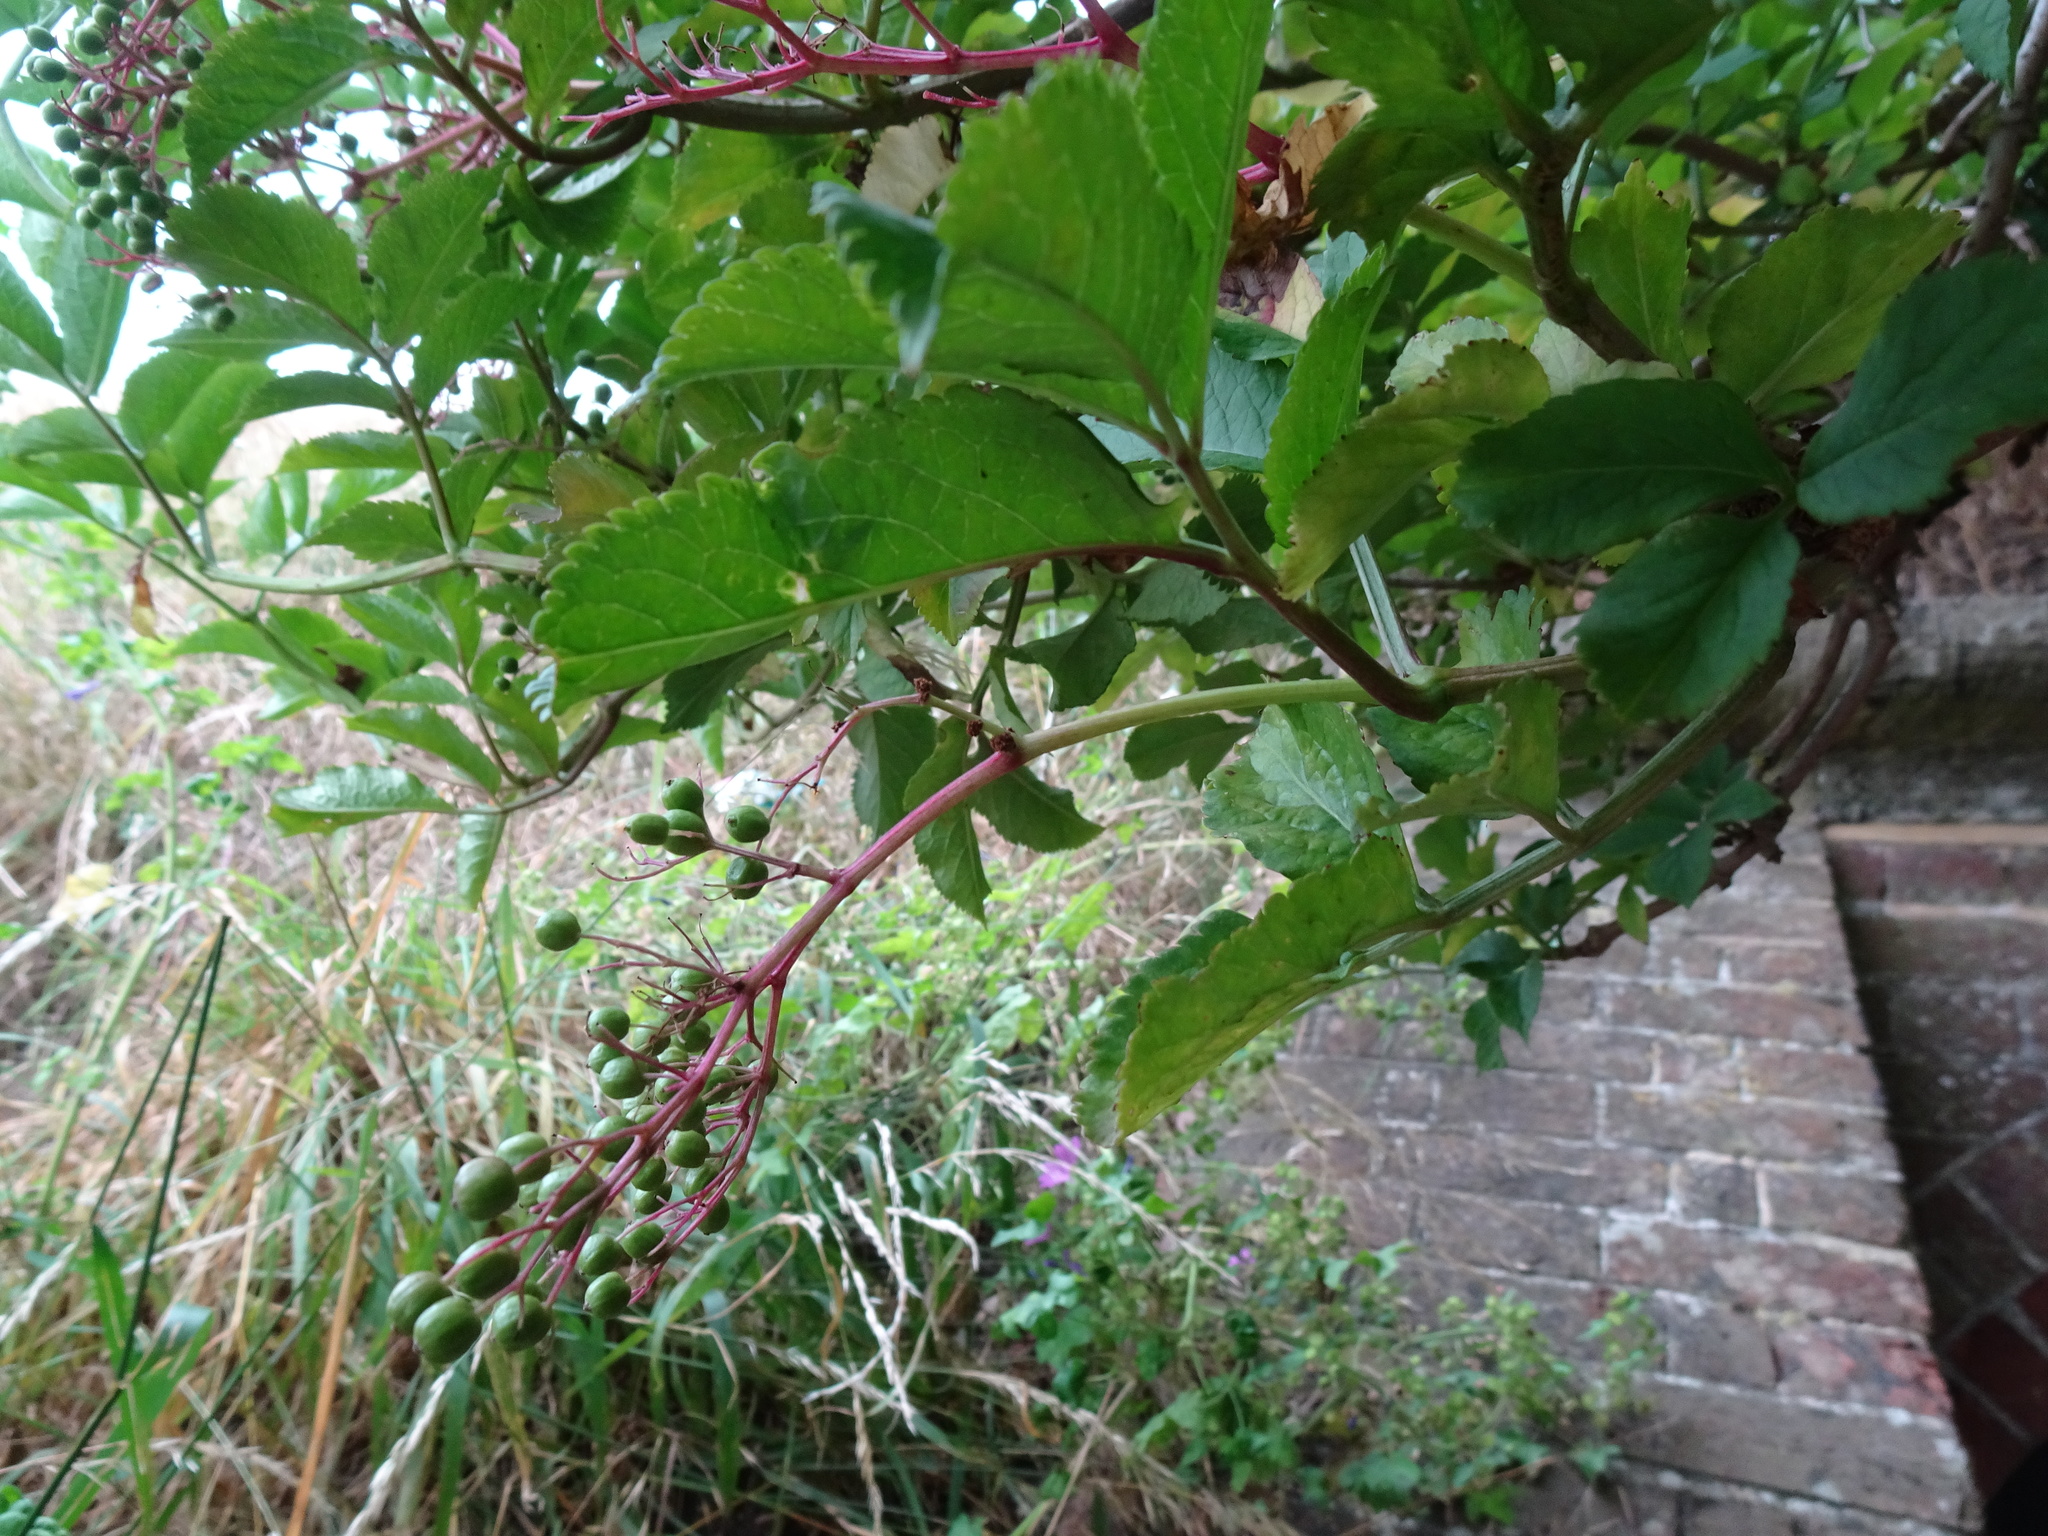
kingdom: Plantae
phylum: Tracheophyta
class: Magnoliopsida
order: Dipsacales
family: Viburnaceae
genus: Sambucus
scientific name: Sambucus nigra
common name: Elder
